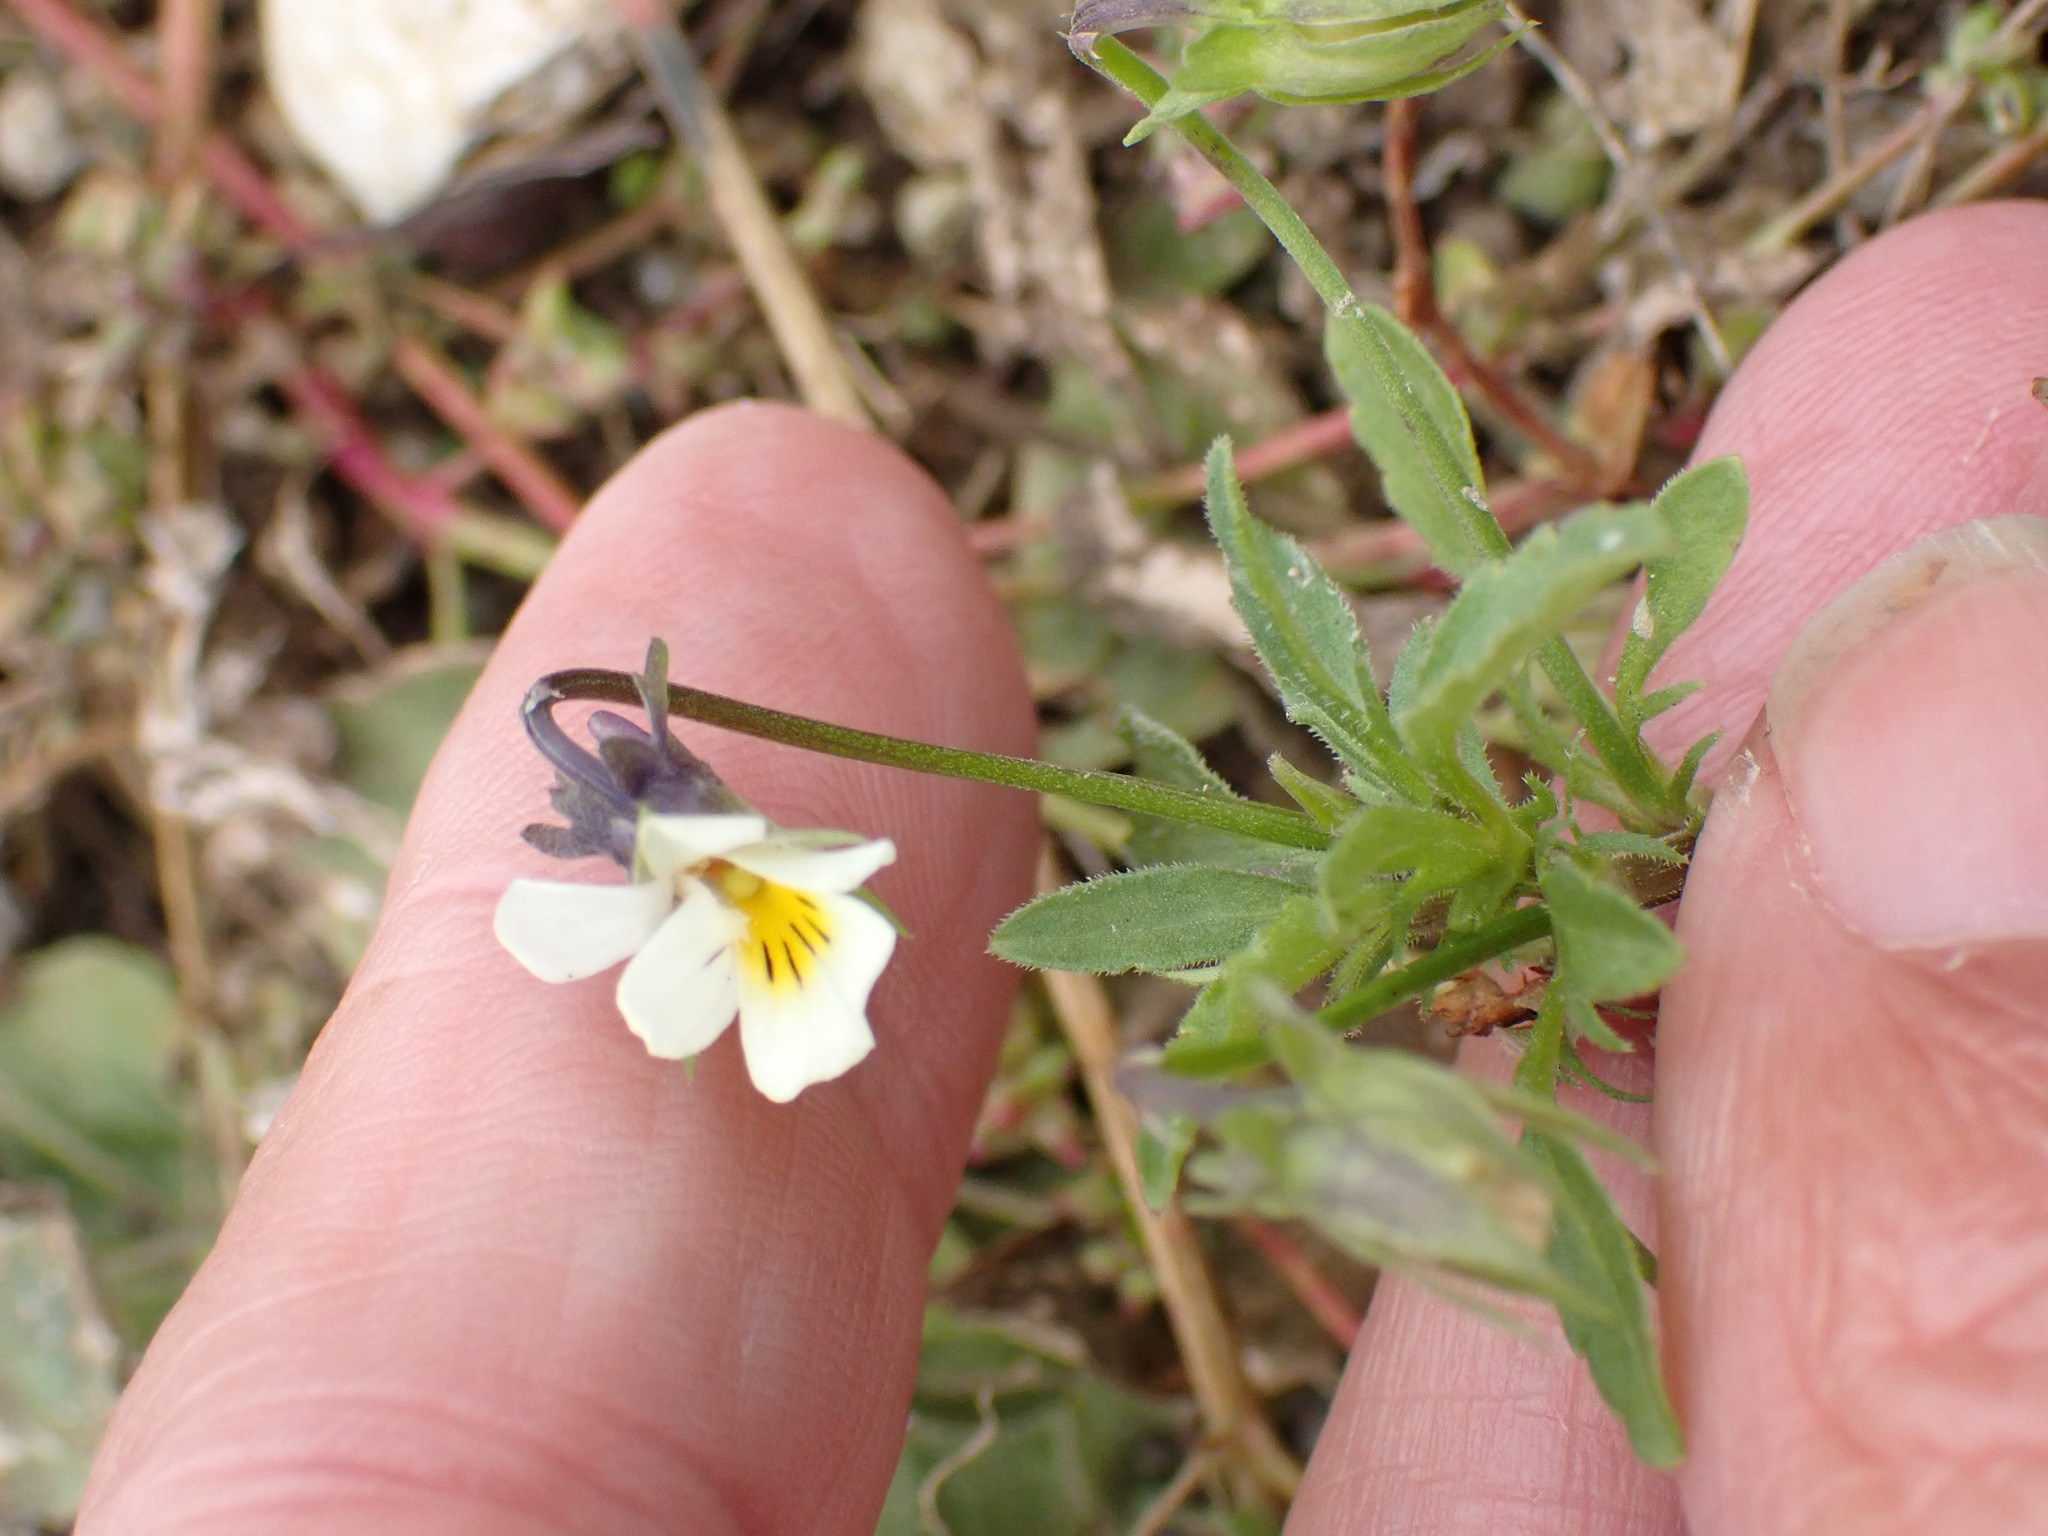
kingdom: Plantae
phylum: Tracheophyta
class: Magnoliopsida
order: Malpighiales
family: Violaceae
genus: Viola
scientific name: Viola arvensis
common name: Field pansy
